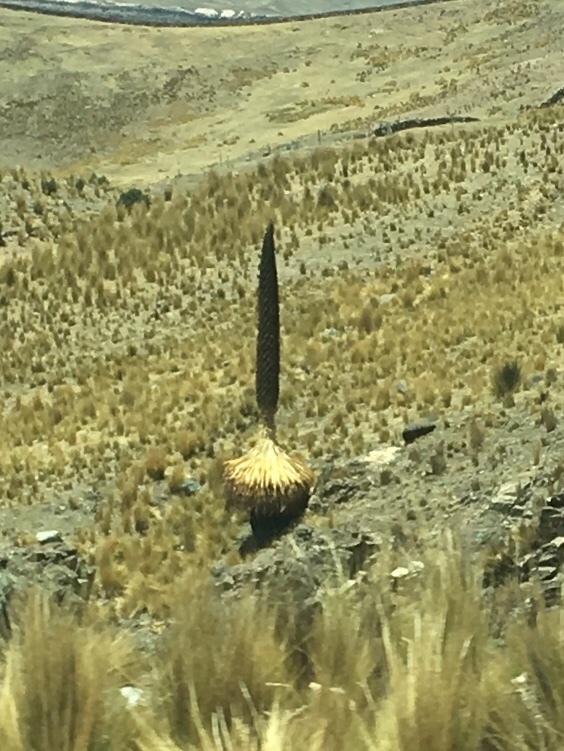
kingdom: Plantae
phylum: Tracheophyta
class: Liliopsida
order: Poales
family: Bromeliaceae
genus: Puya
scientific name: Puya raimondii
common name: Queen of the andes
